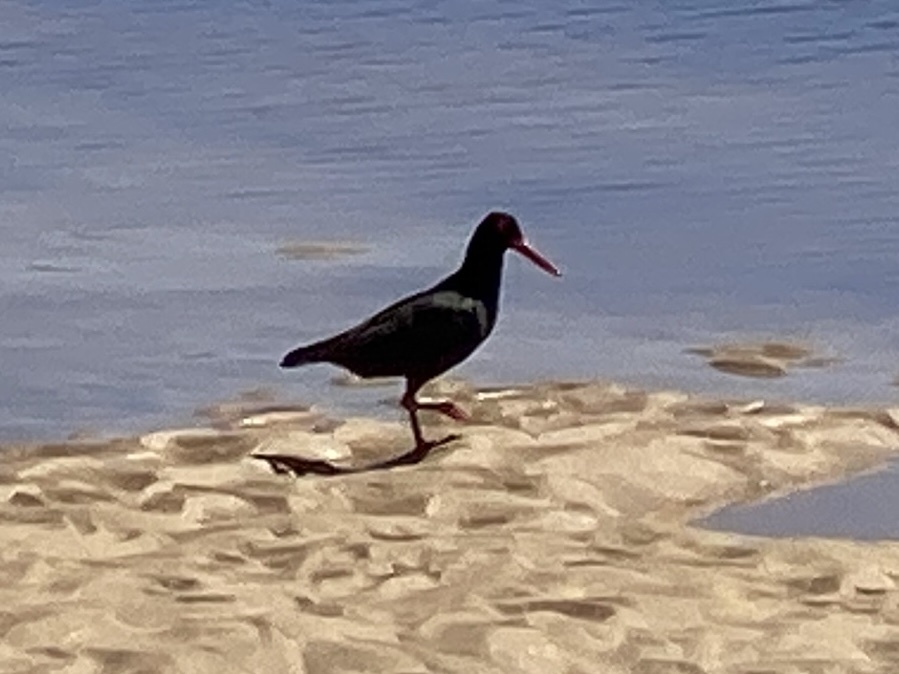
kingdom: Animalia
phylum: Chordata
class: Aves
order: Charadriiformes
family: Haematopodidae
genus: Haematopus
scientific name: Haematopus moquini
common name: African oystercatcher
